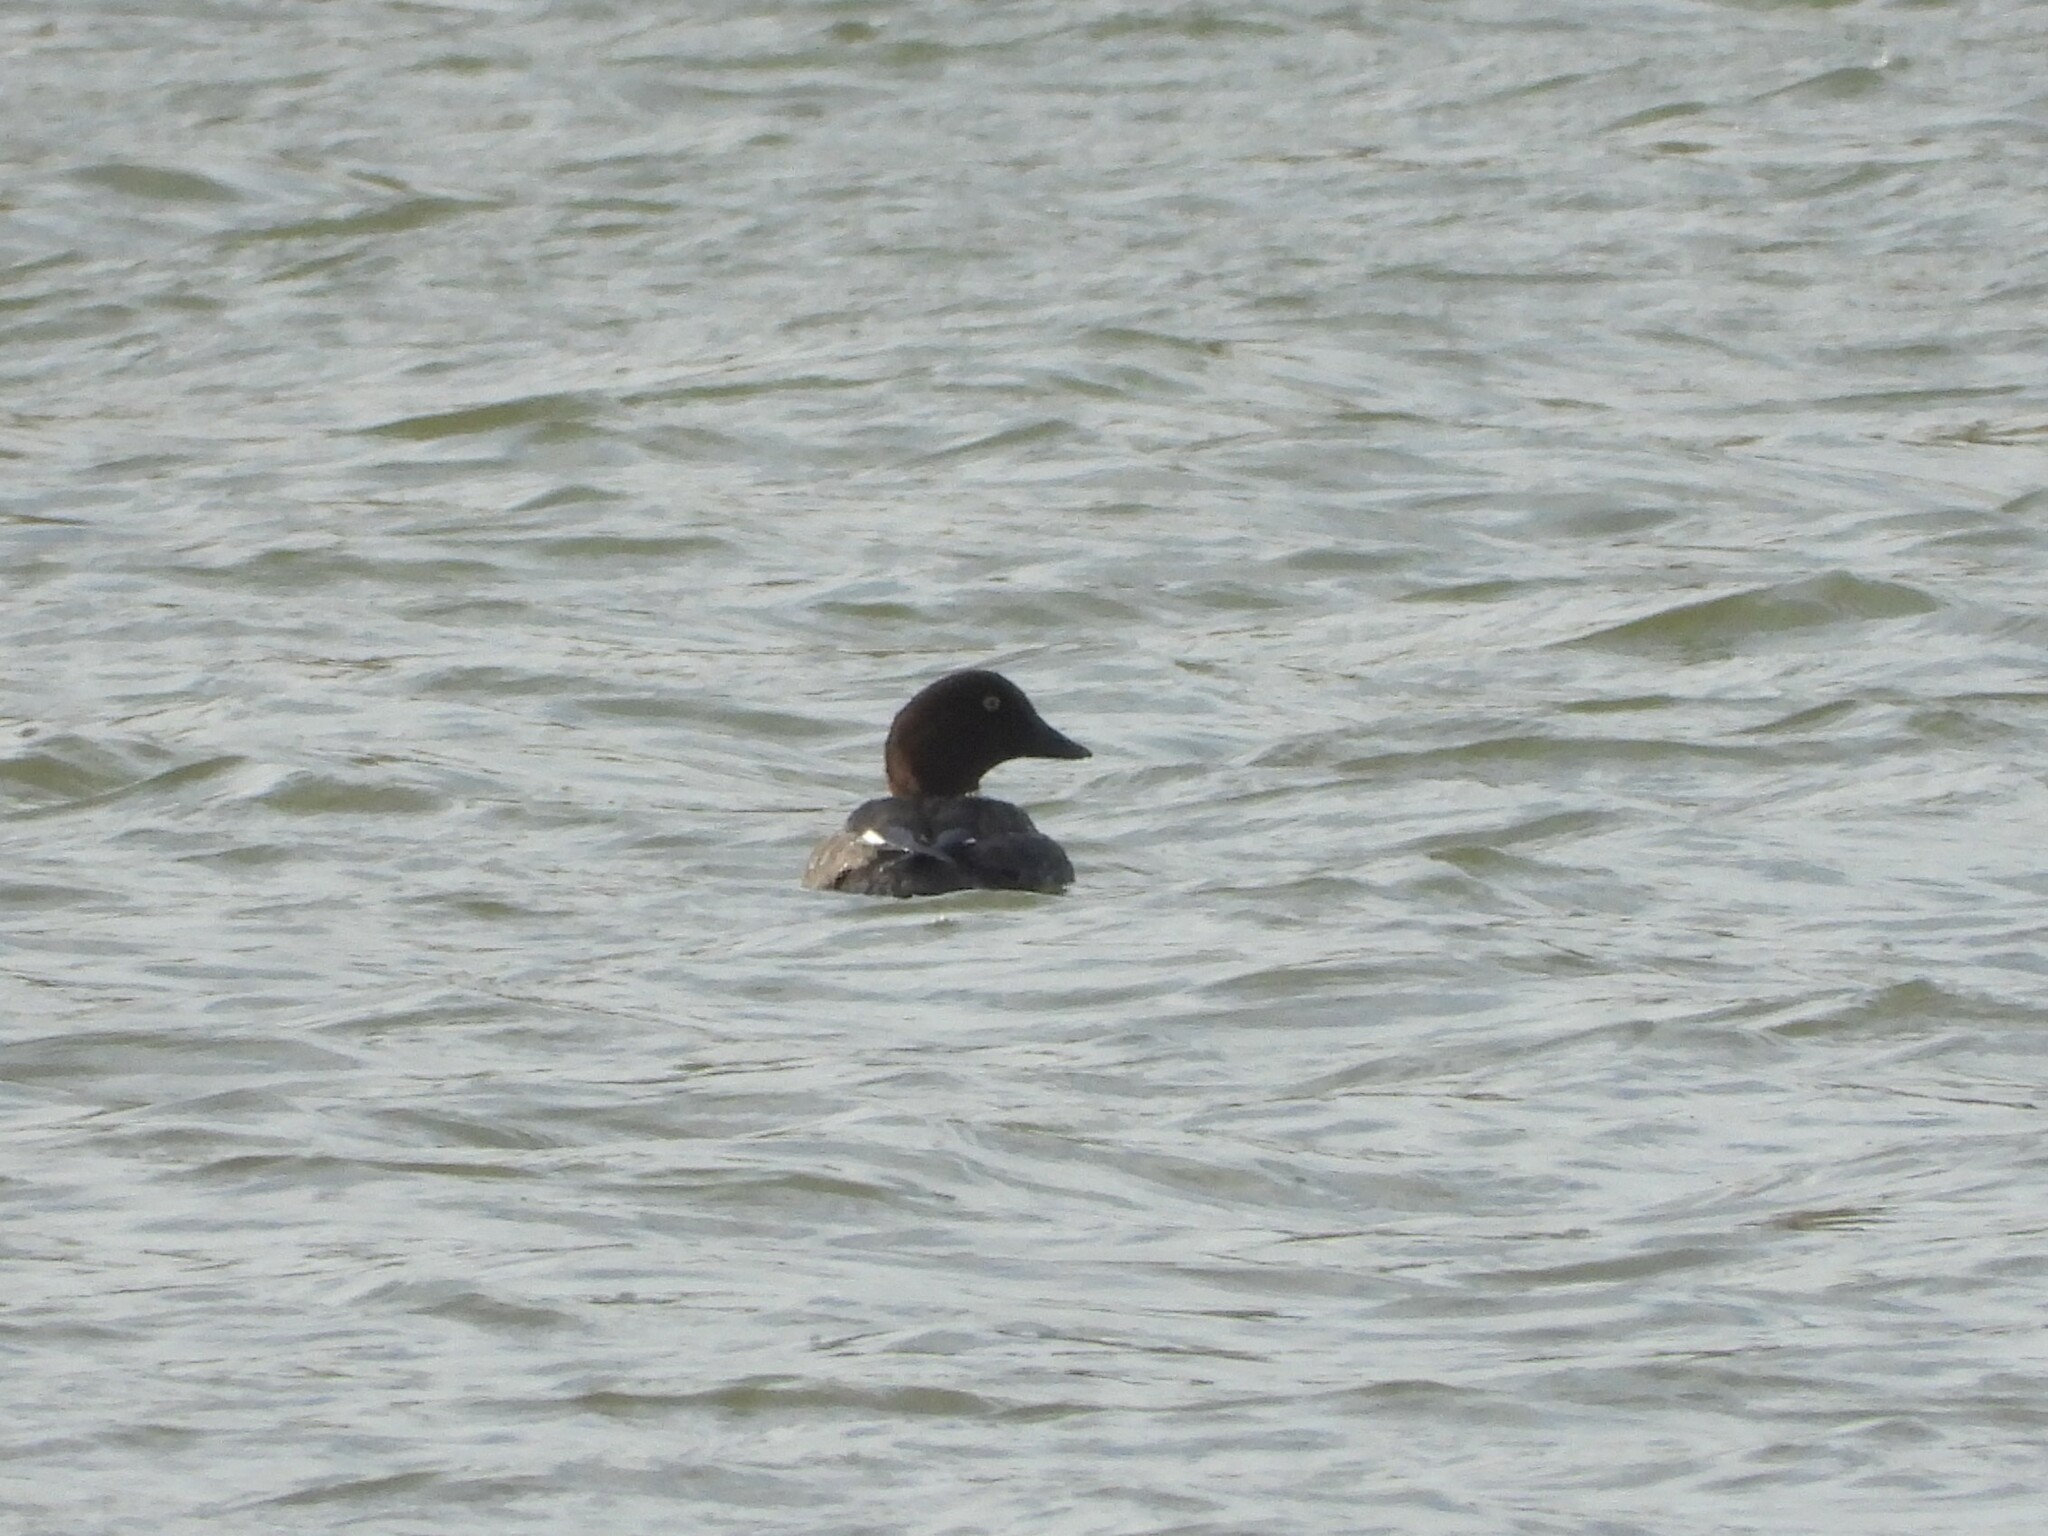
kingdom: Animalia
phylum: Chordata
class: Aves
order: Anseriformes
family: Anatidae
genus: Bucephala
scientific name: Bucephala clangula
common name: Common goldeneye
